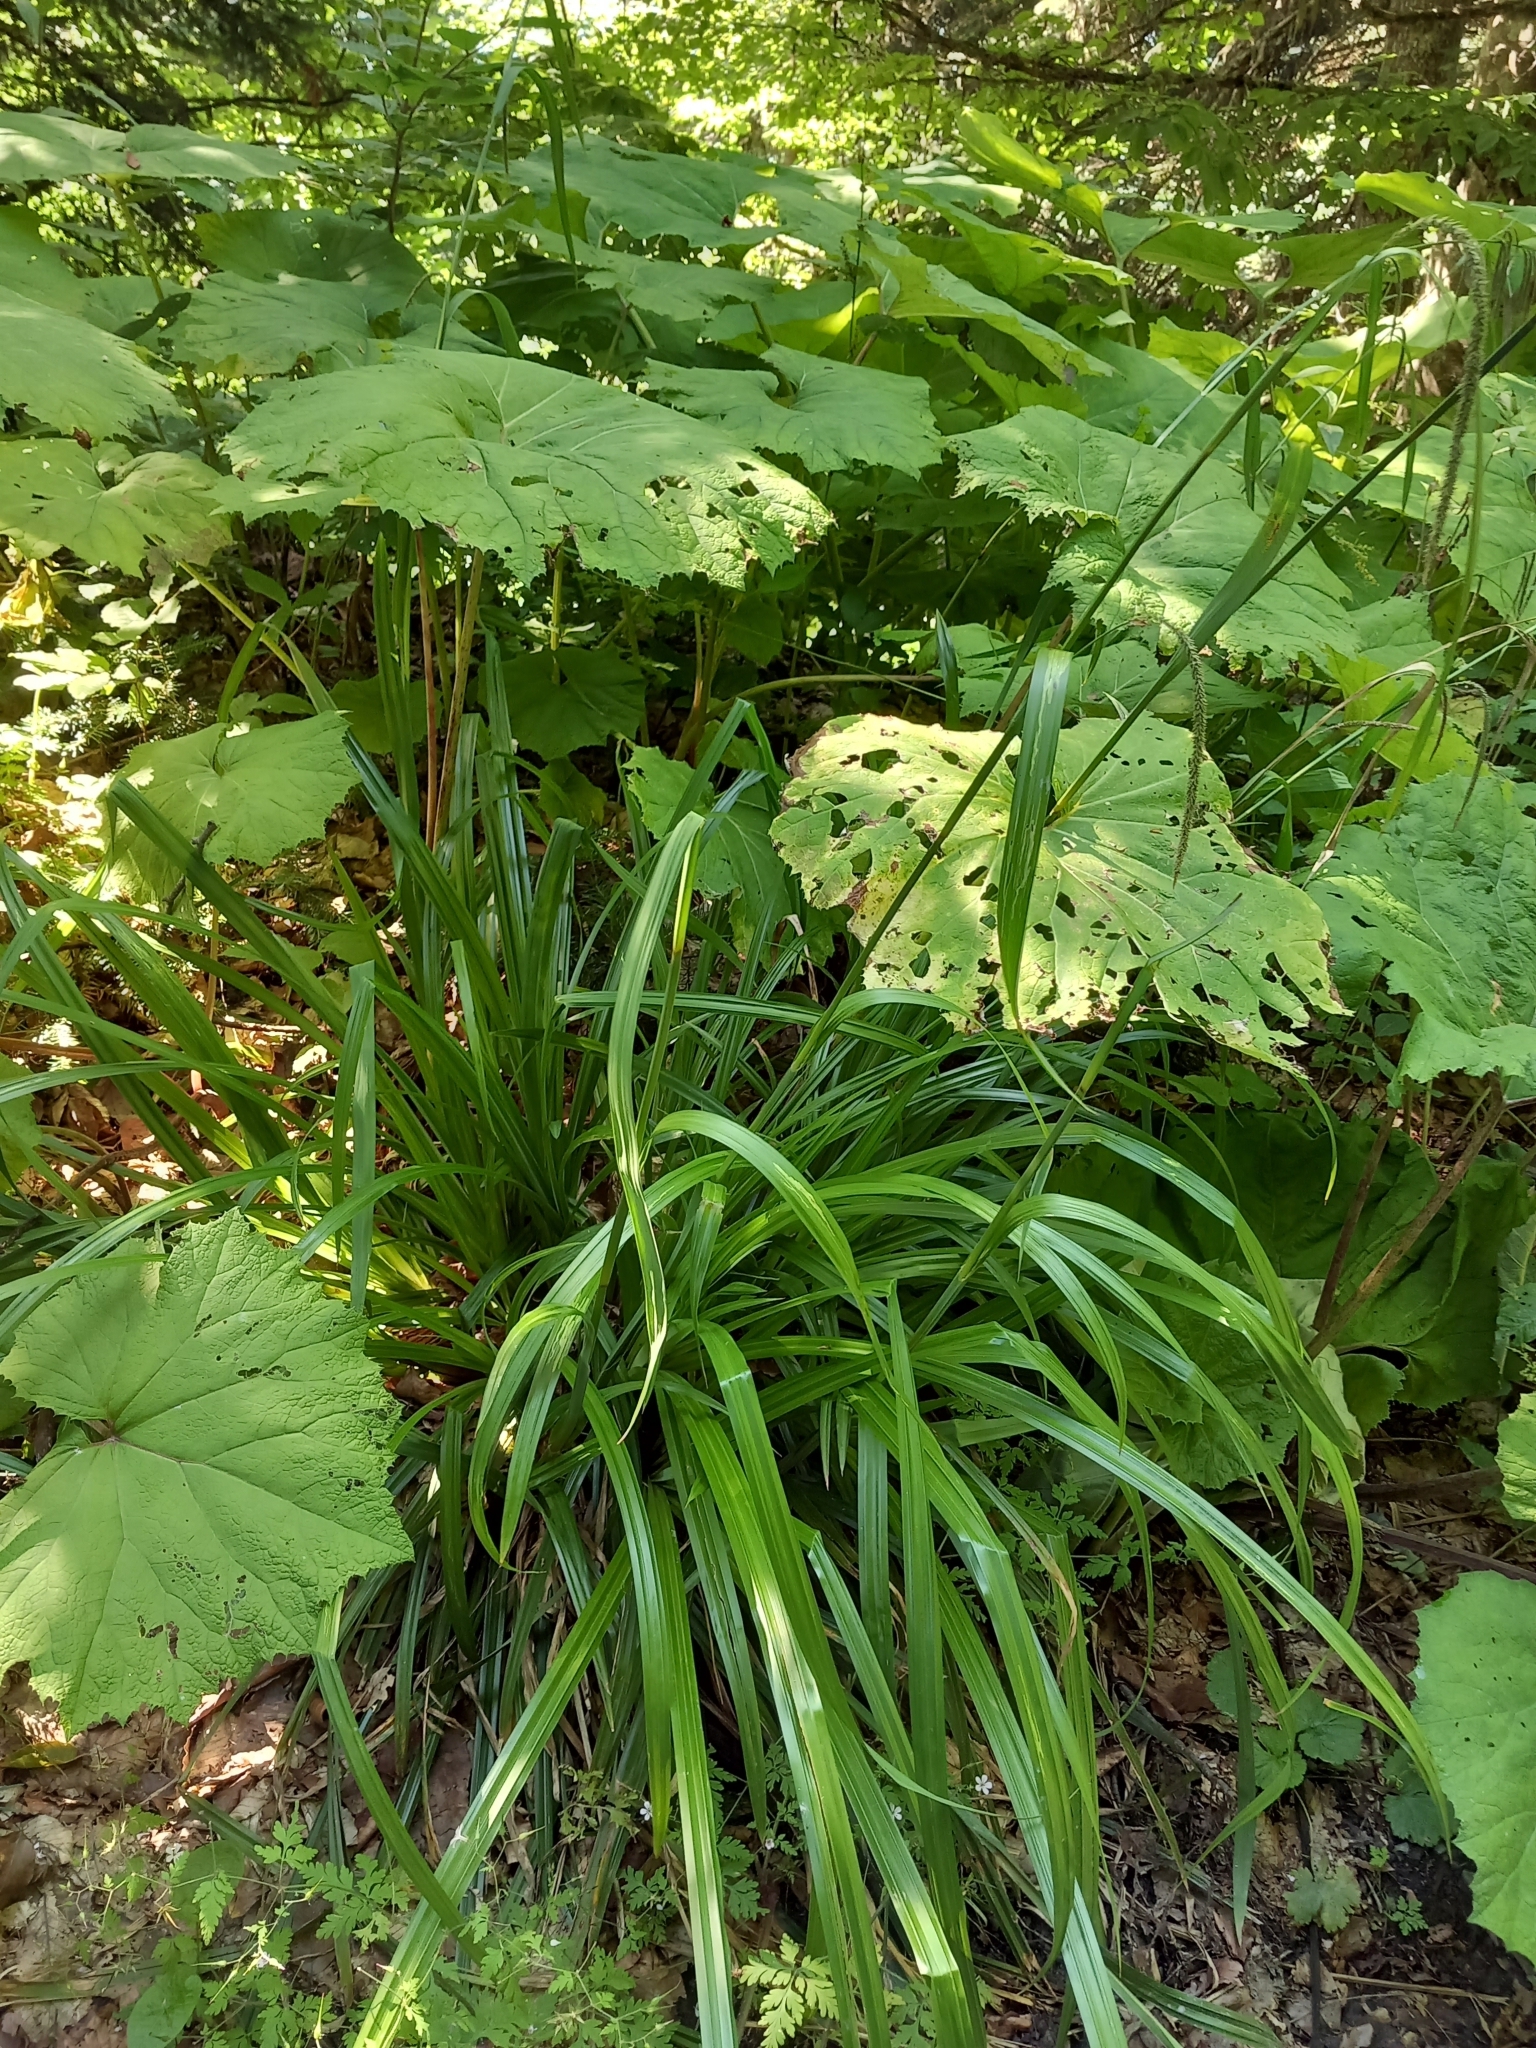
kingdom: Plantae
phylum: Tracheophyta
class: Liliopsida
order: Poales
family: Cyperaceae
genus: Carex
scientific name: Carex pendula
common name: Pendulous sedge
